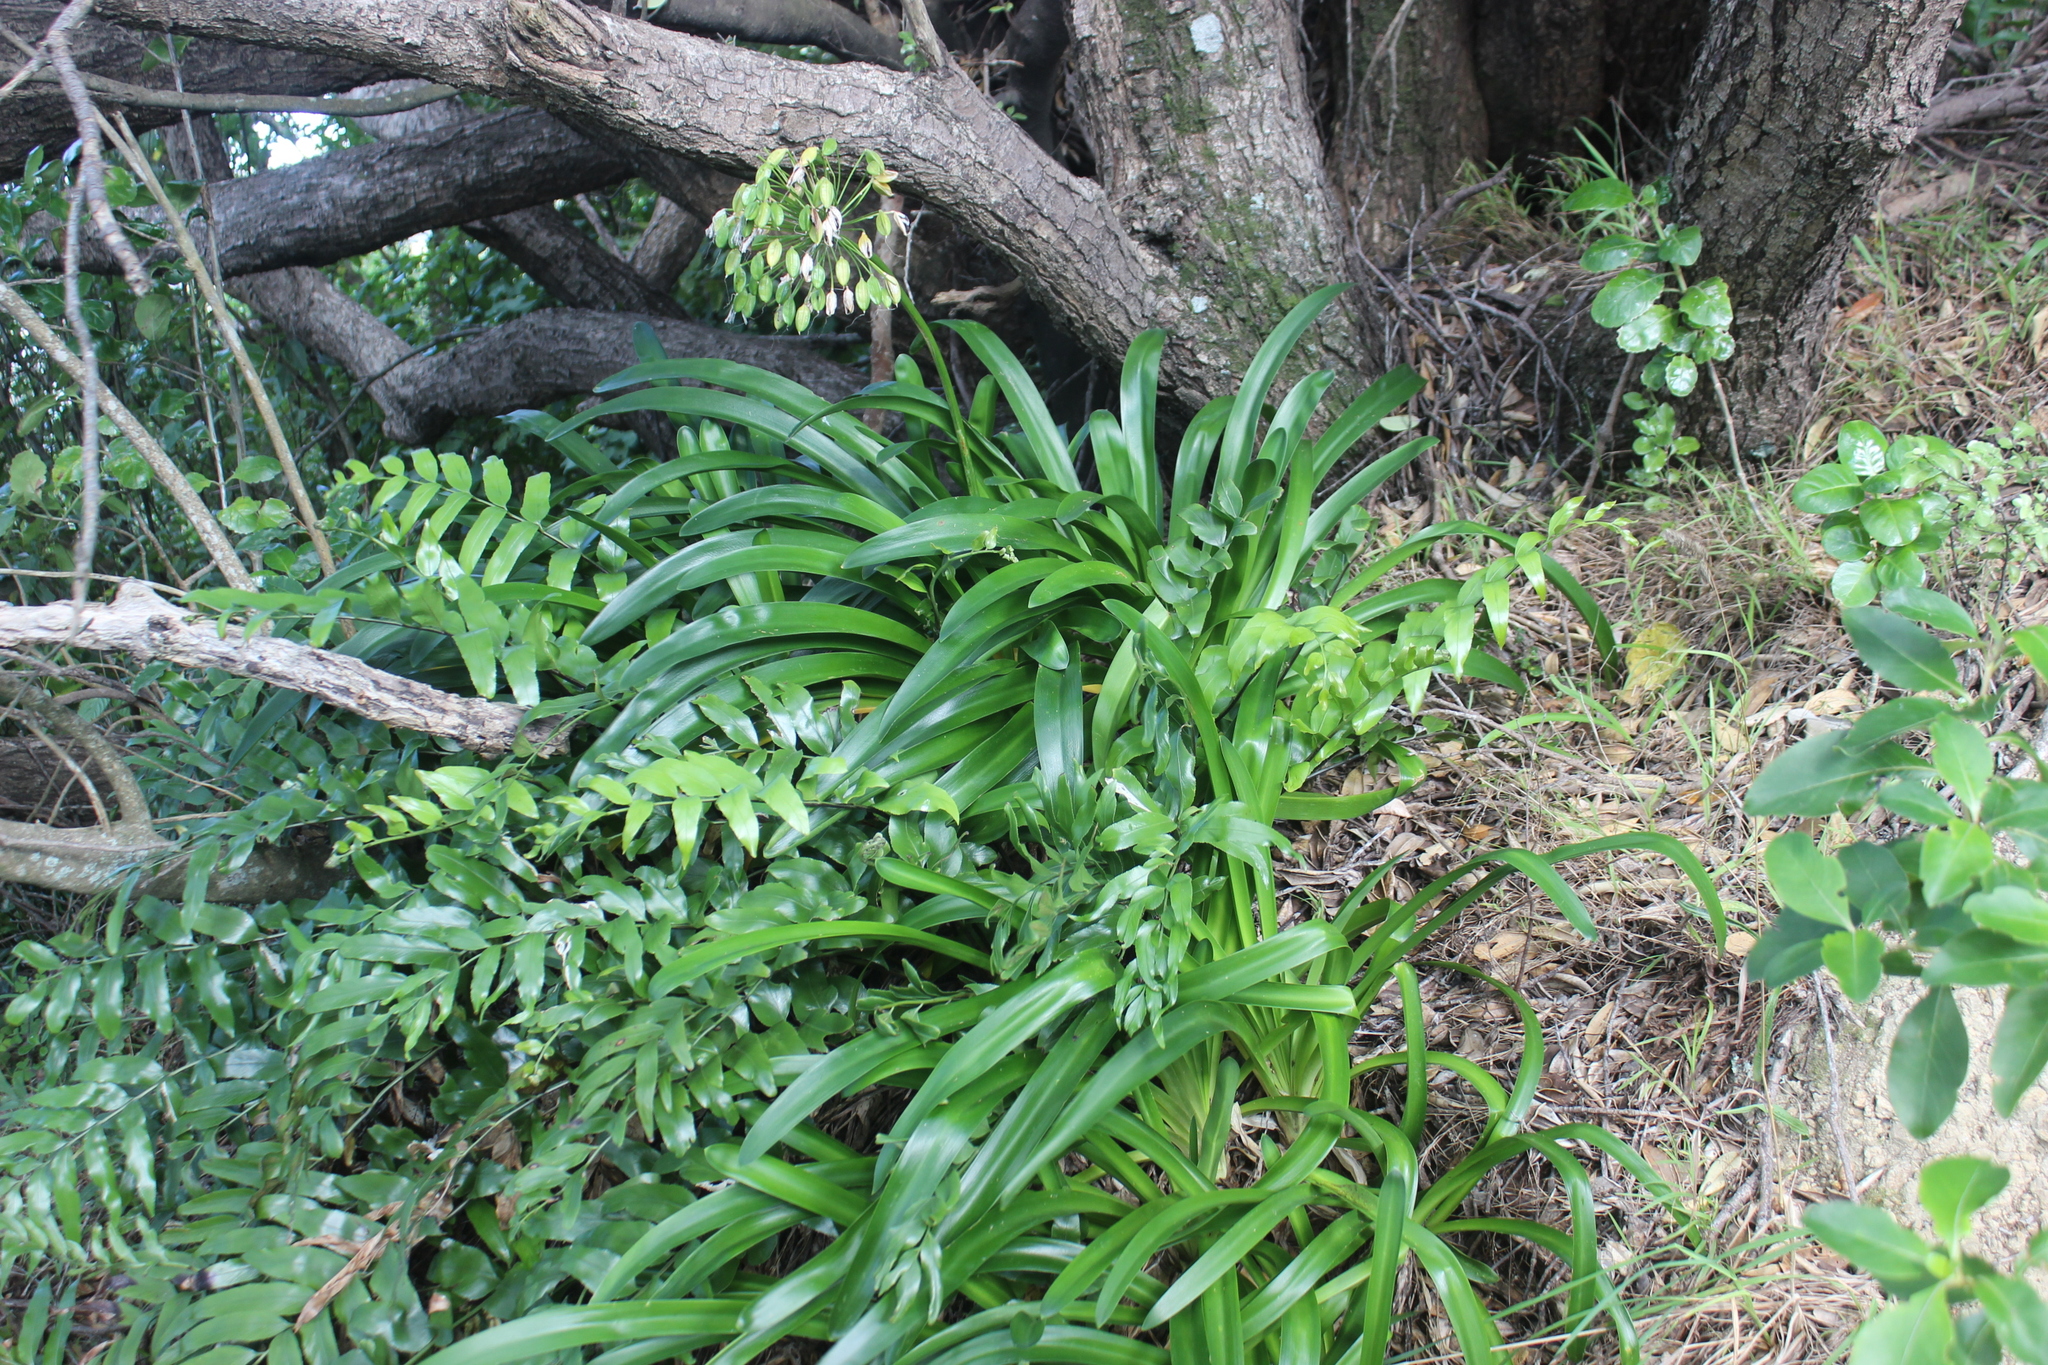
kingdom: Plantae
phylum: Tracheophyta
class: Liliopsida
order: Asparagales
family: Amaryllidaceae
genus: Agapanthus
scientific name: Agapanthus praecox
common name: African-lily
